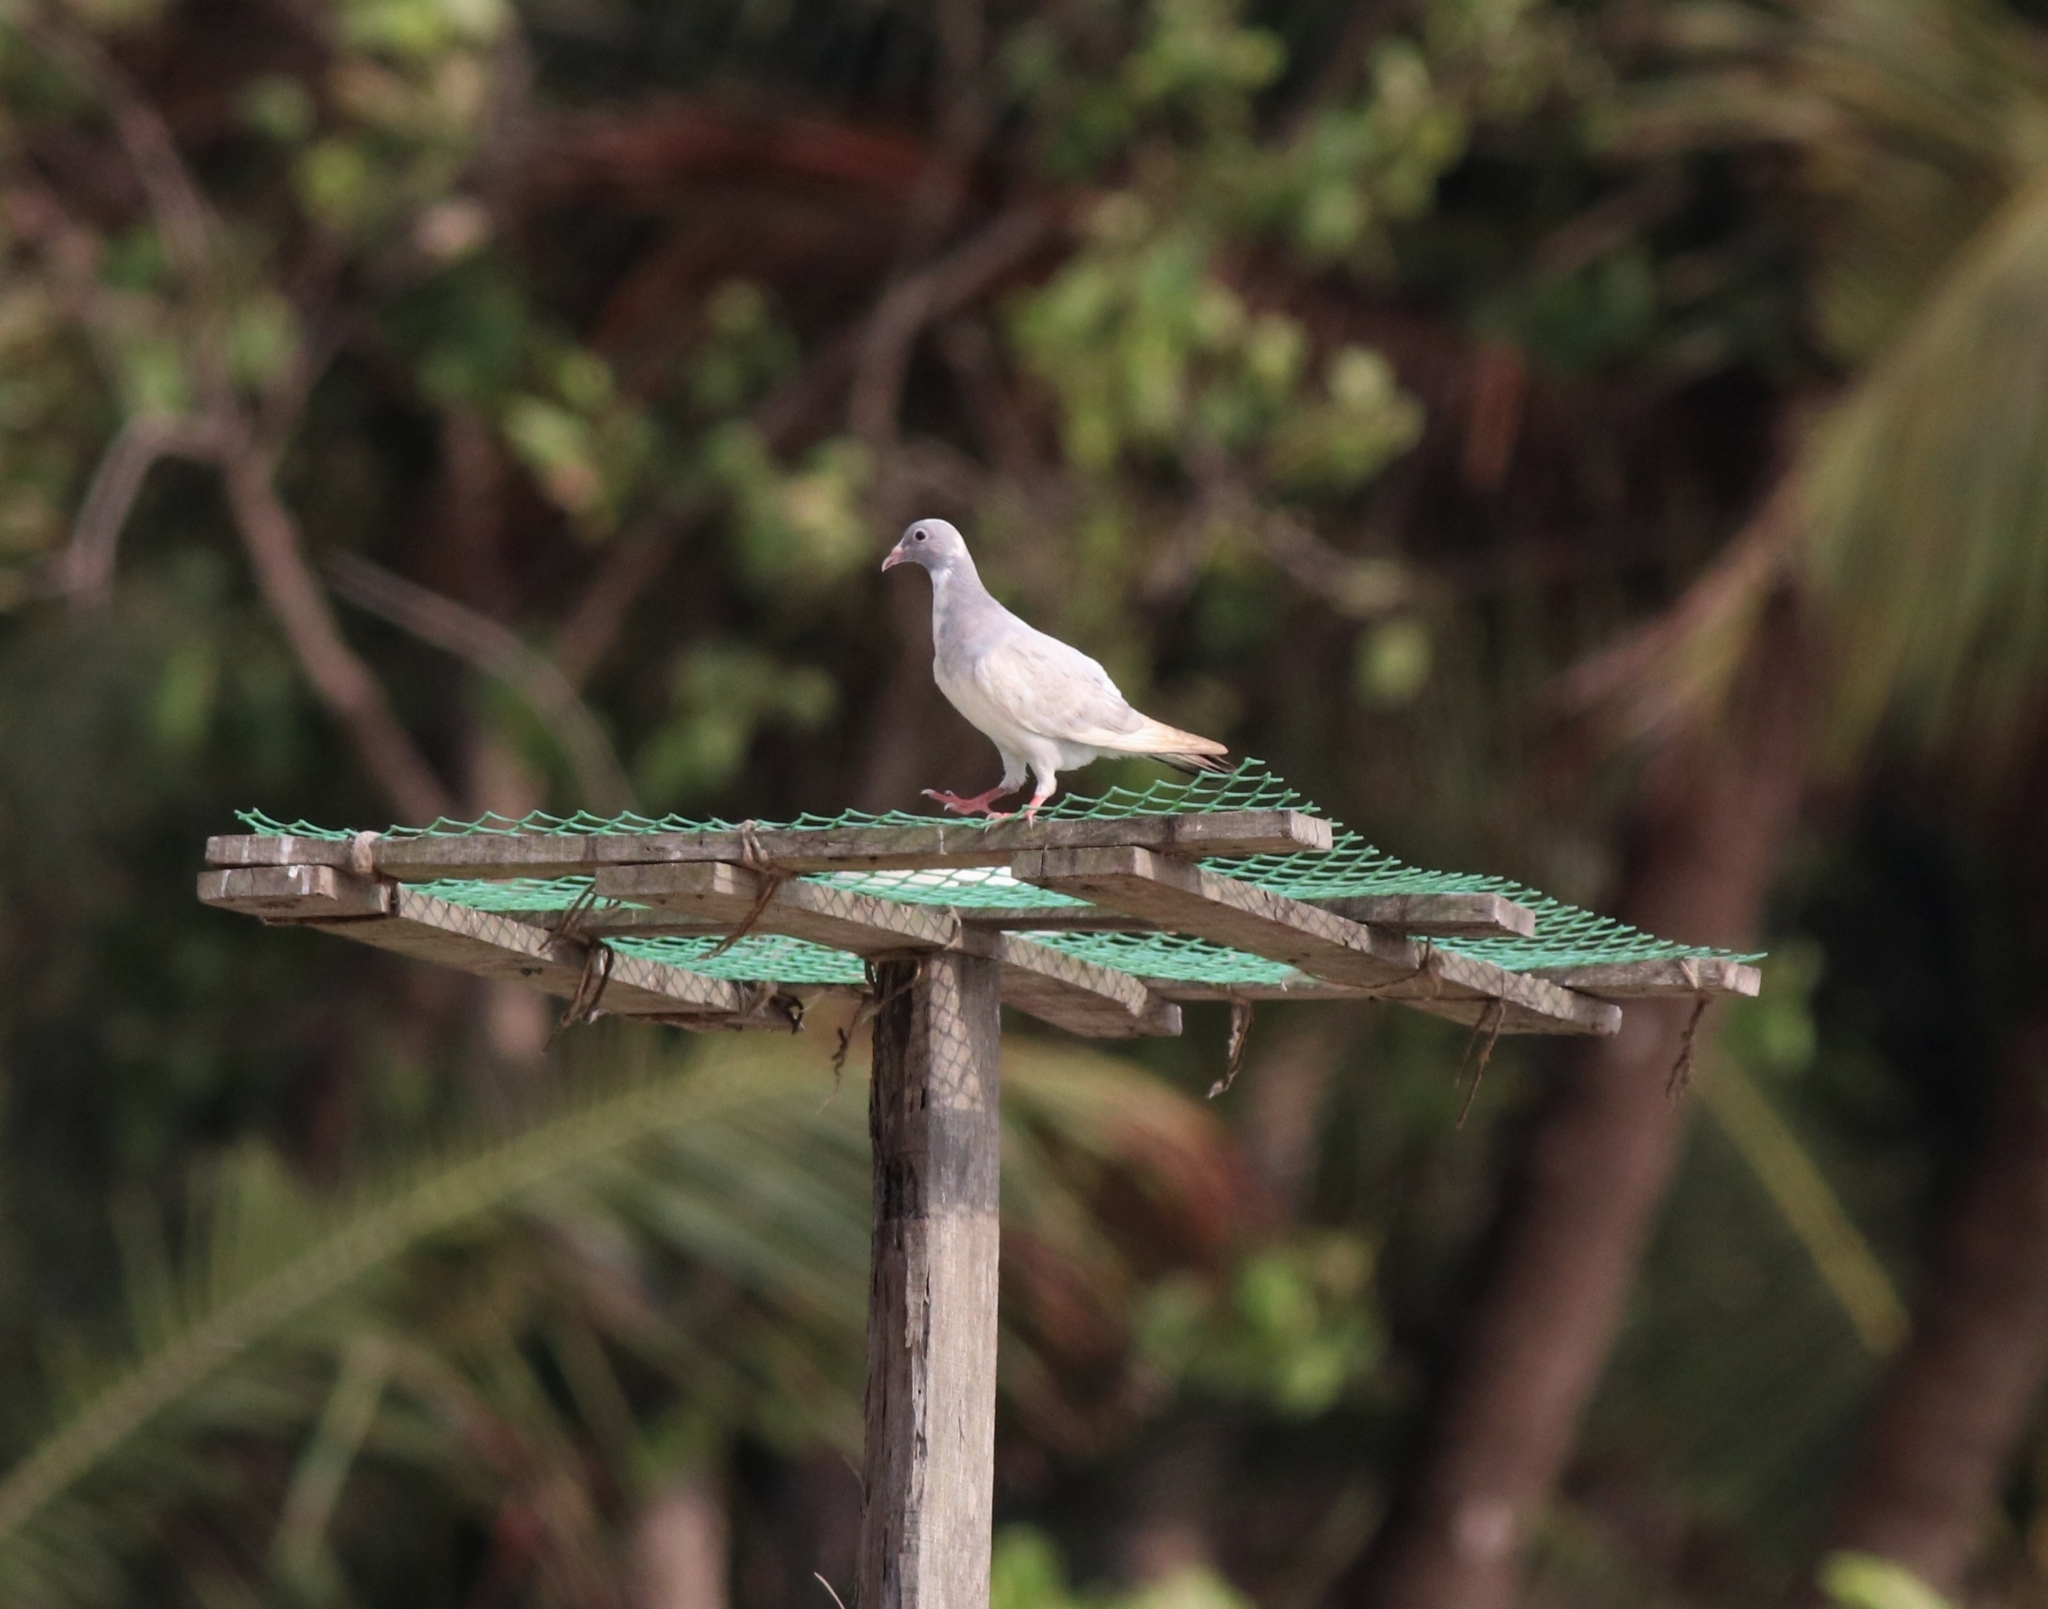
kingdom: Animalia
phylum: Chordata
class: Aves
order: Columbiformes
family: Columbidae
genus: Columba
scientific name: Columba livia
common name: Rock pigeon
